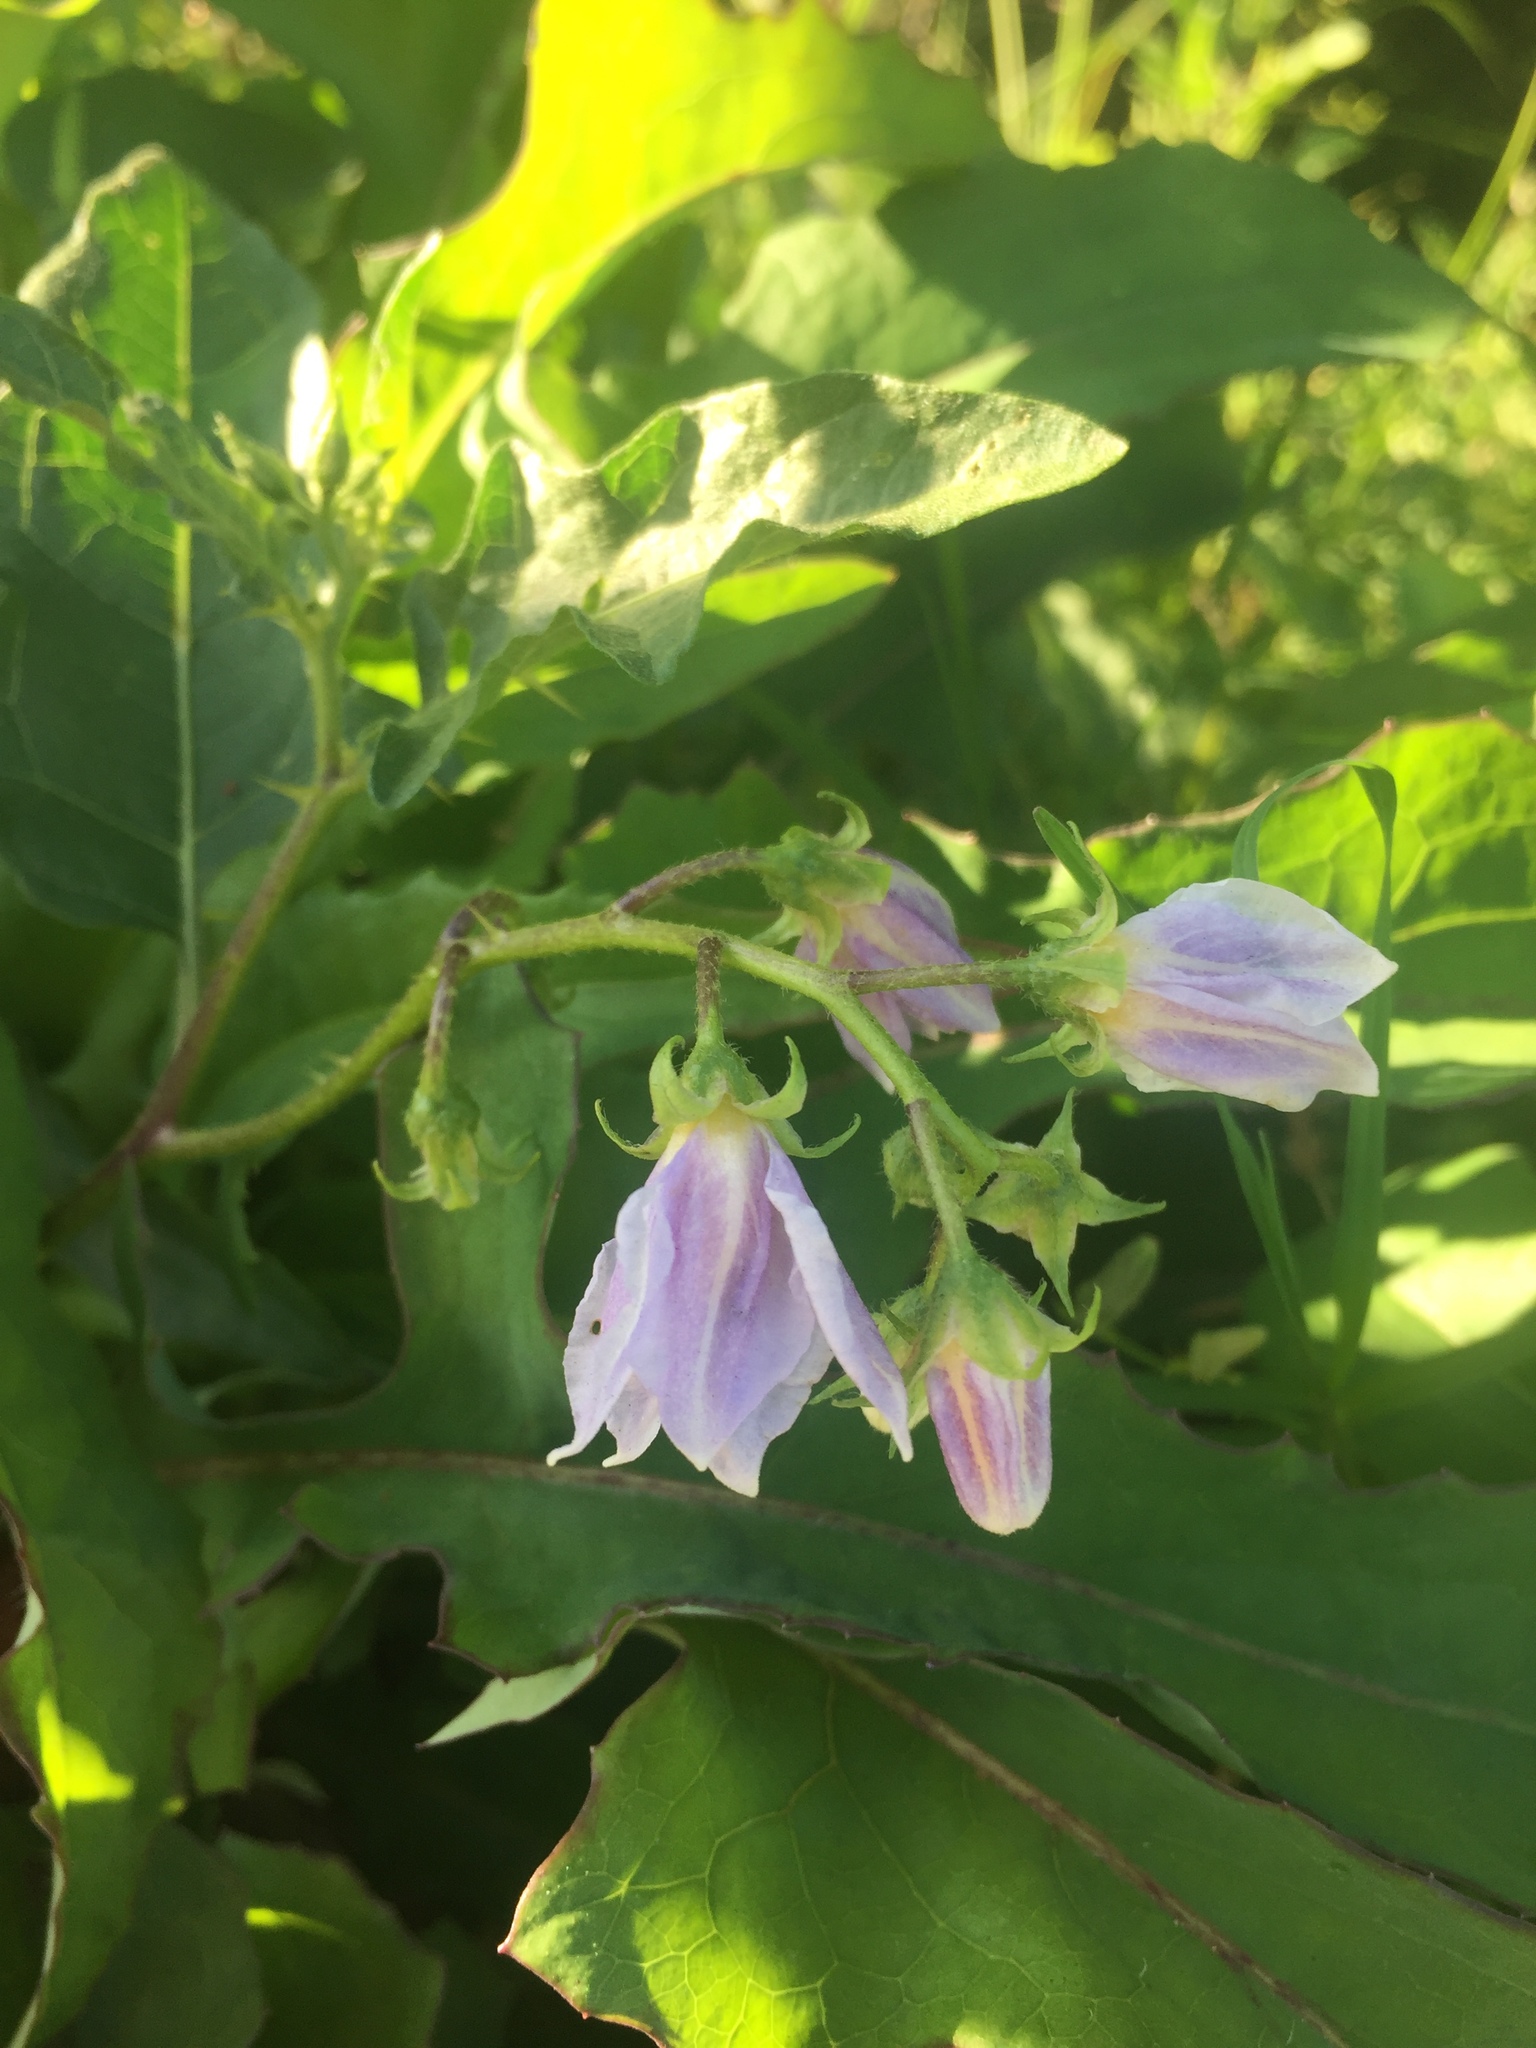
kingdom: Plantae
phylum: Tracheophyta
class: Magnoliopsida
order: Solanales
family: Solanaceae
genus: Solanum
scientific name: Solanum carolinense
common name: Horse-nettle
